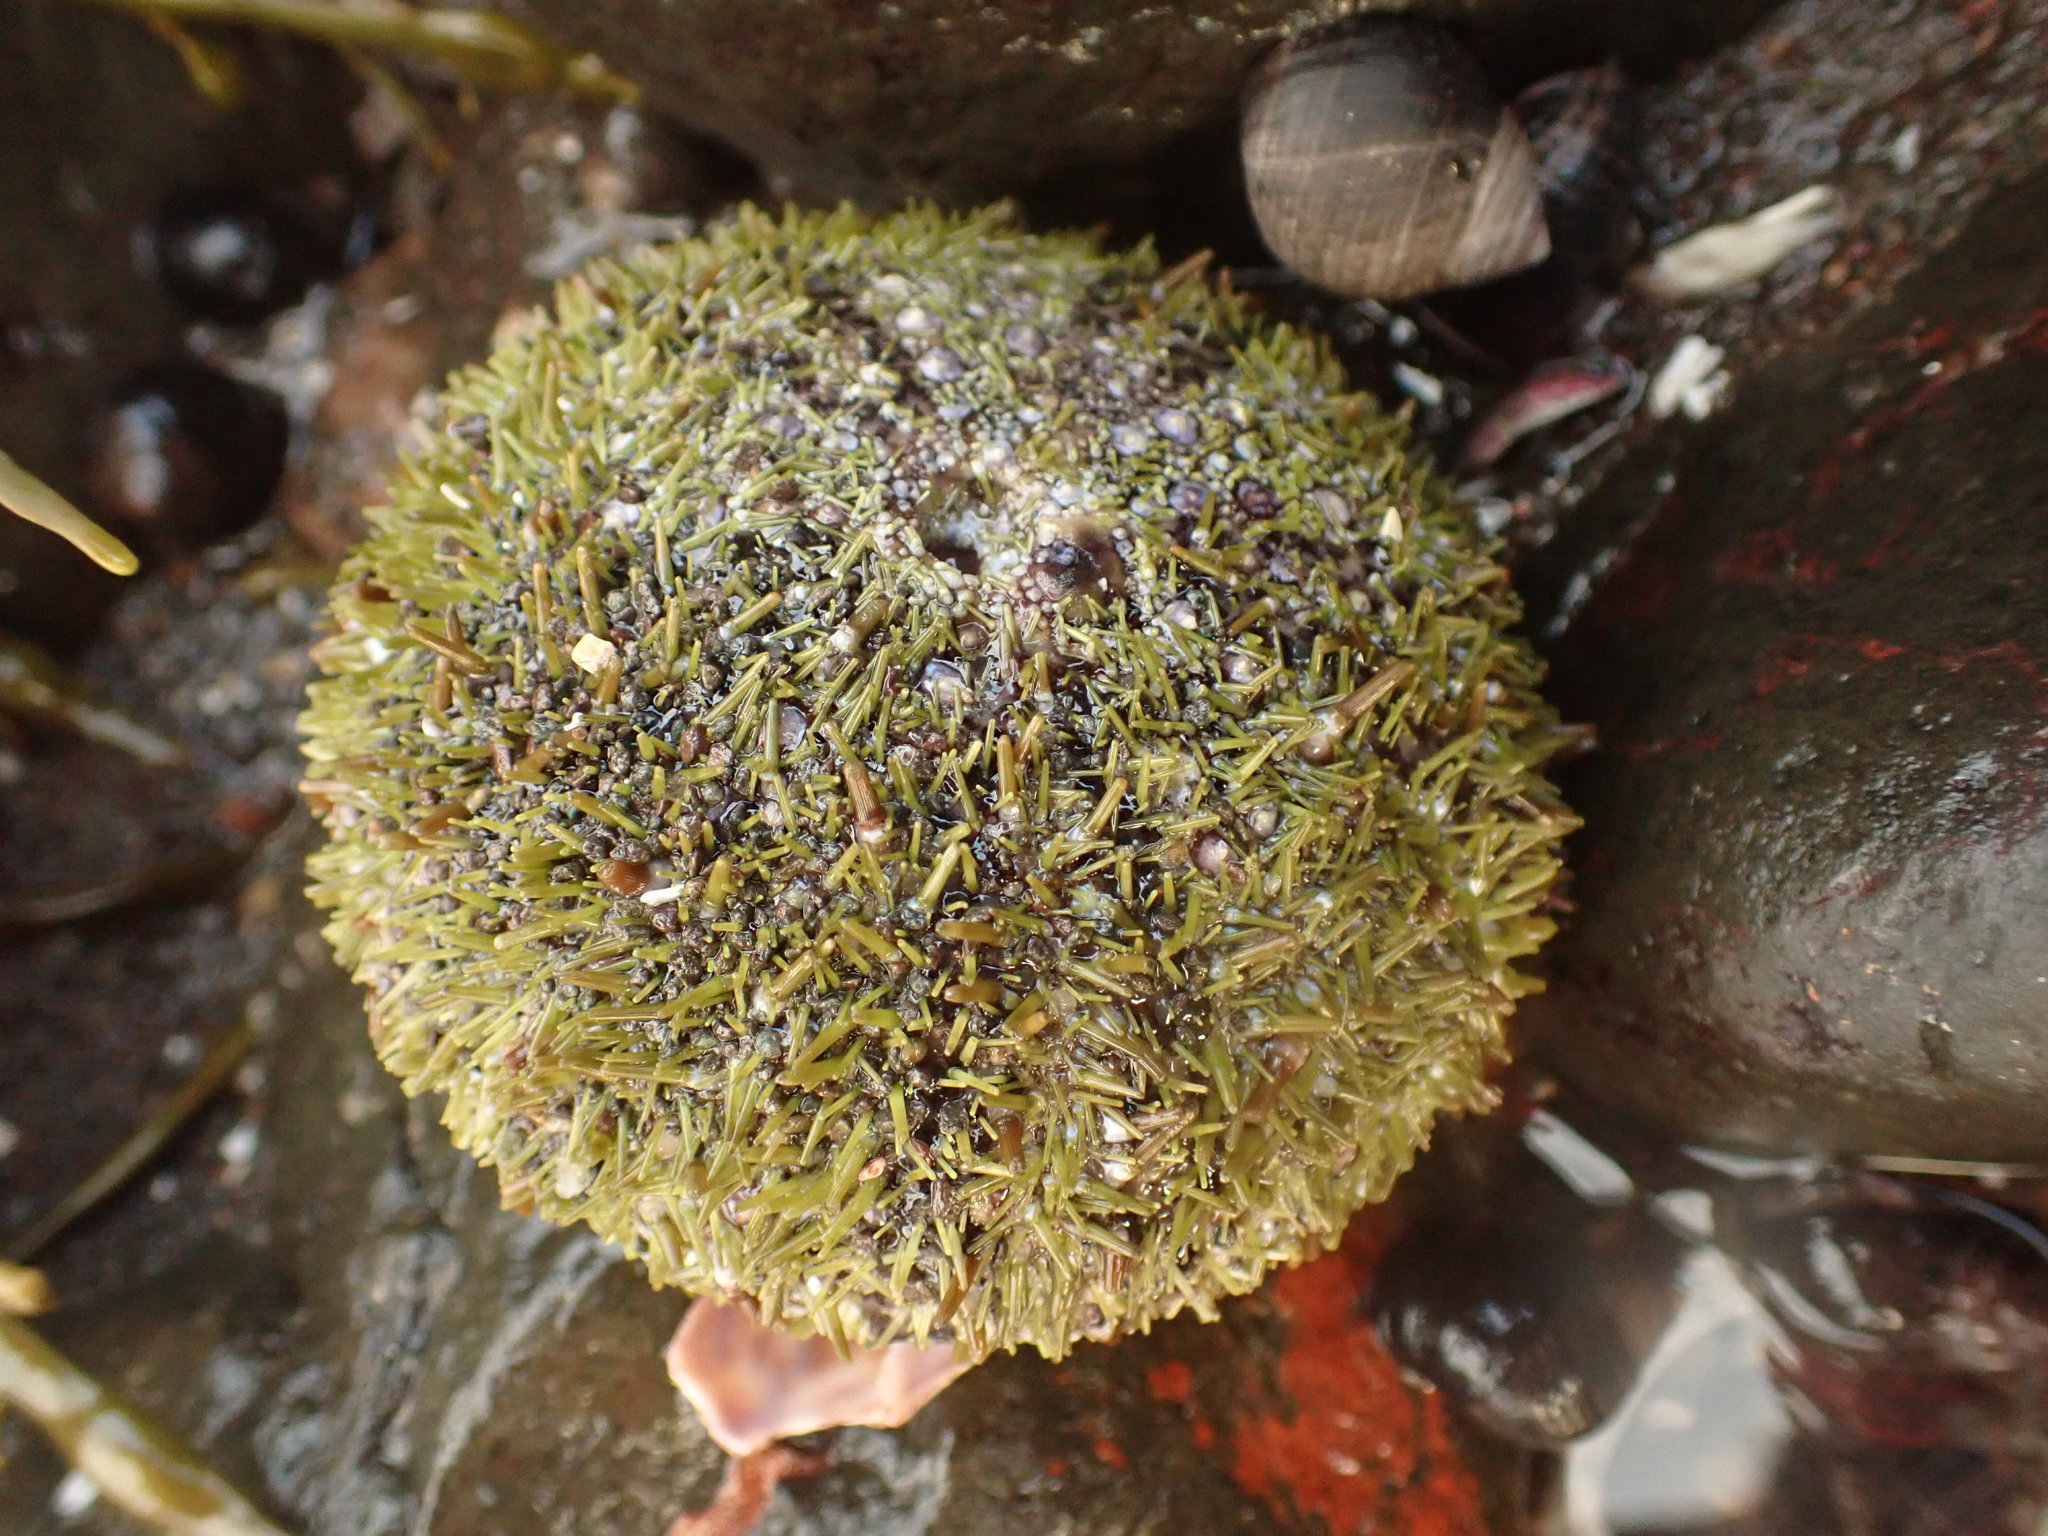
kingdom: Animalia
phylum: Echinodermata
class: Echinoidea
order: Camarodonta
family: Strongylocentrotidae
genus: Strongylocentrotus
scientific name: Strongylocentrotus droebachiensis
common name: Northern sea urchin
